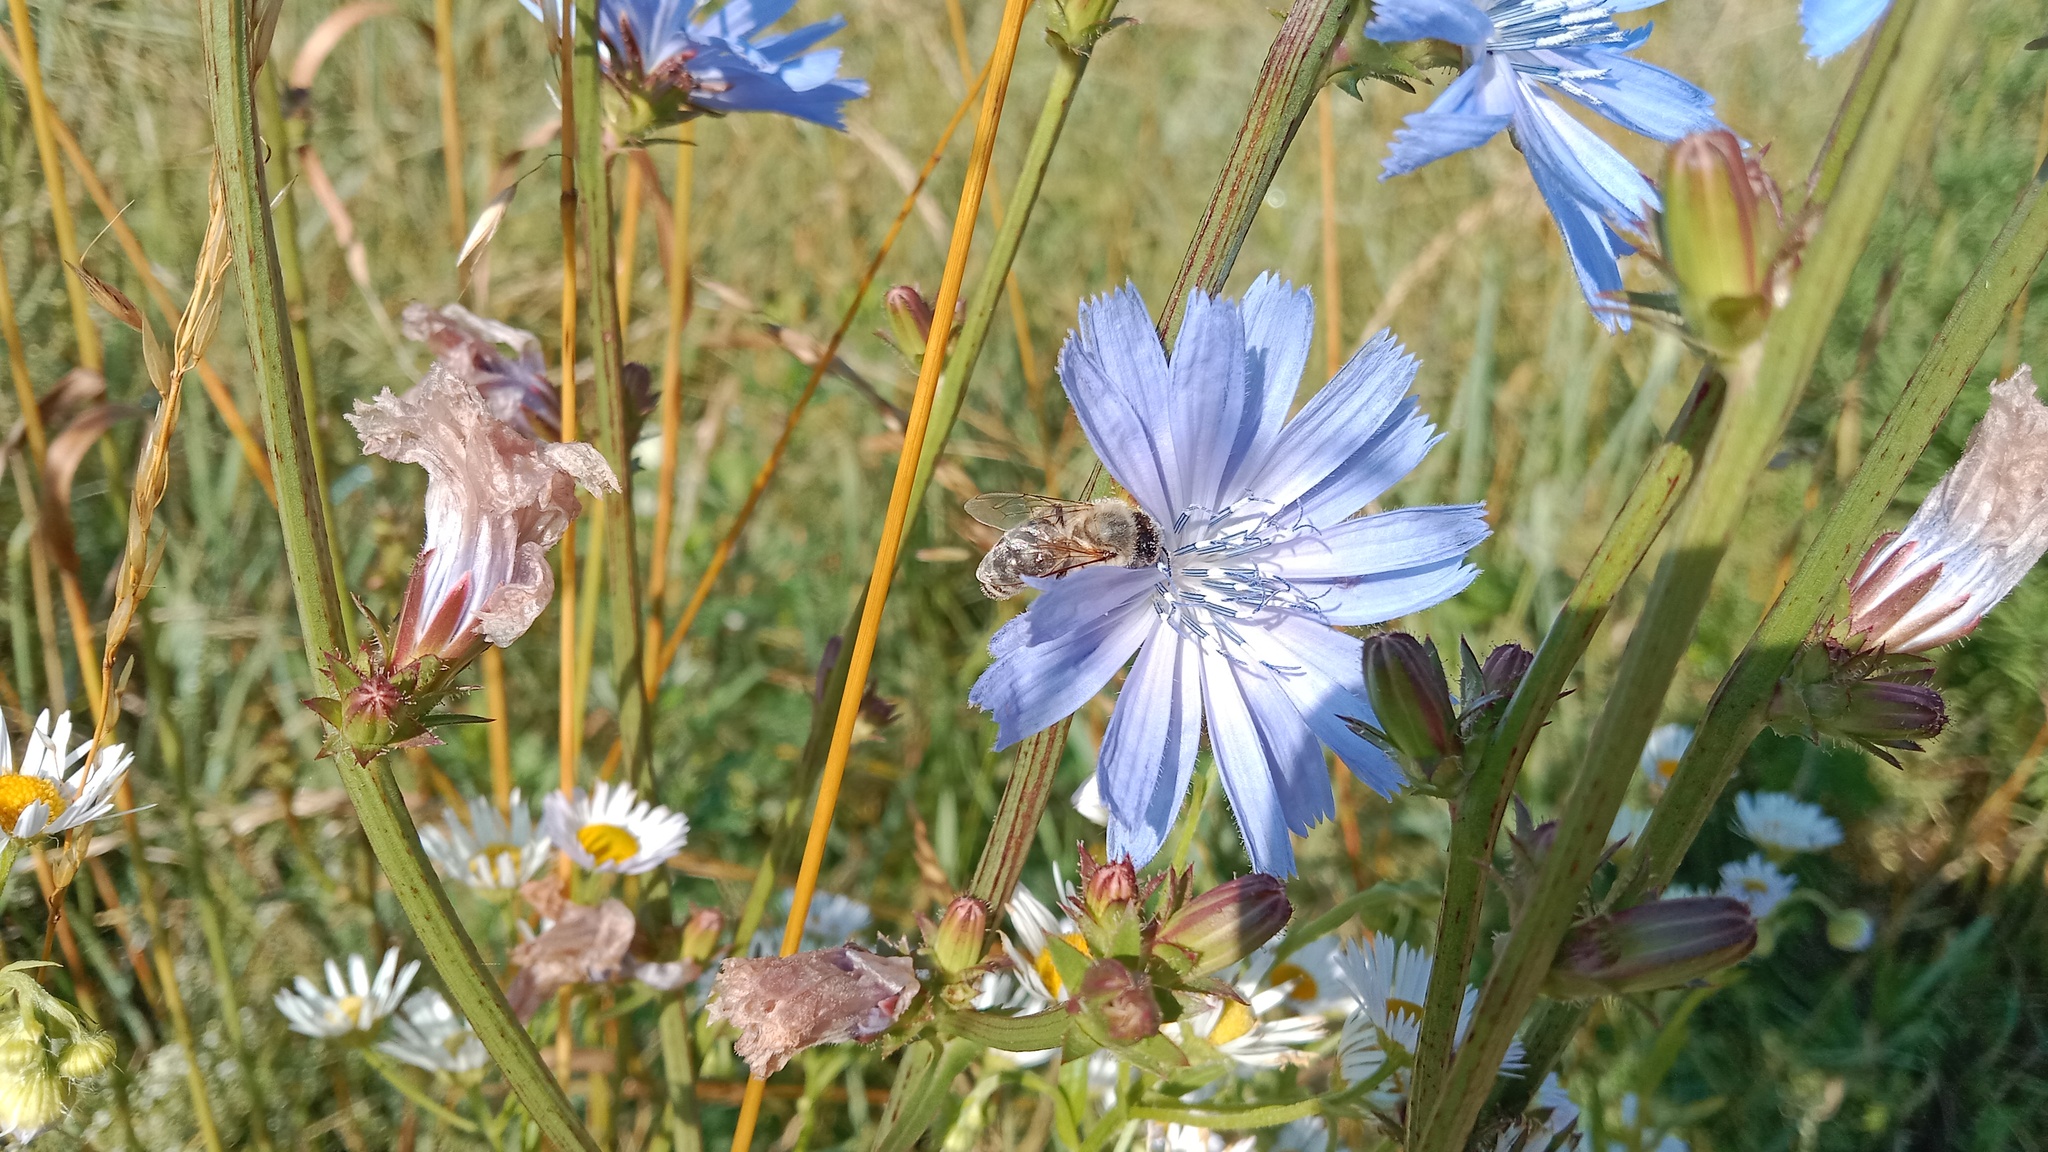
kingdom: Animalia
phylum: Arthropoda
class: Insecta
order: Hymenoptera
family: Apidae
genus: Apis
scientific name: Apis mellifera
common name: Honey bee
